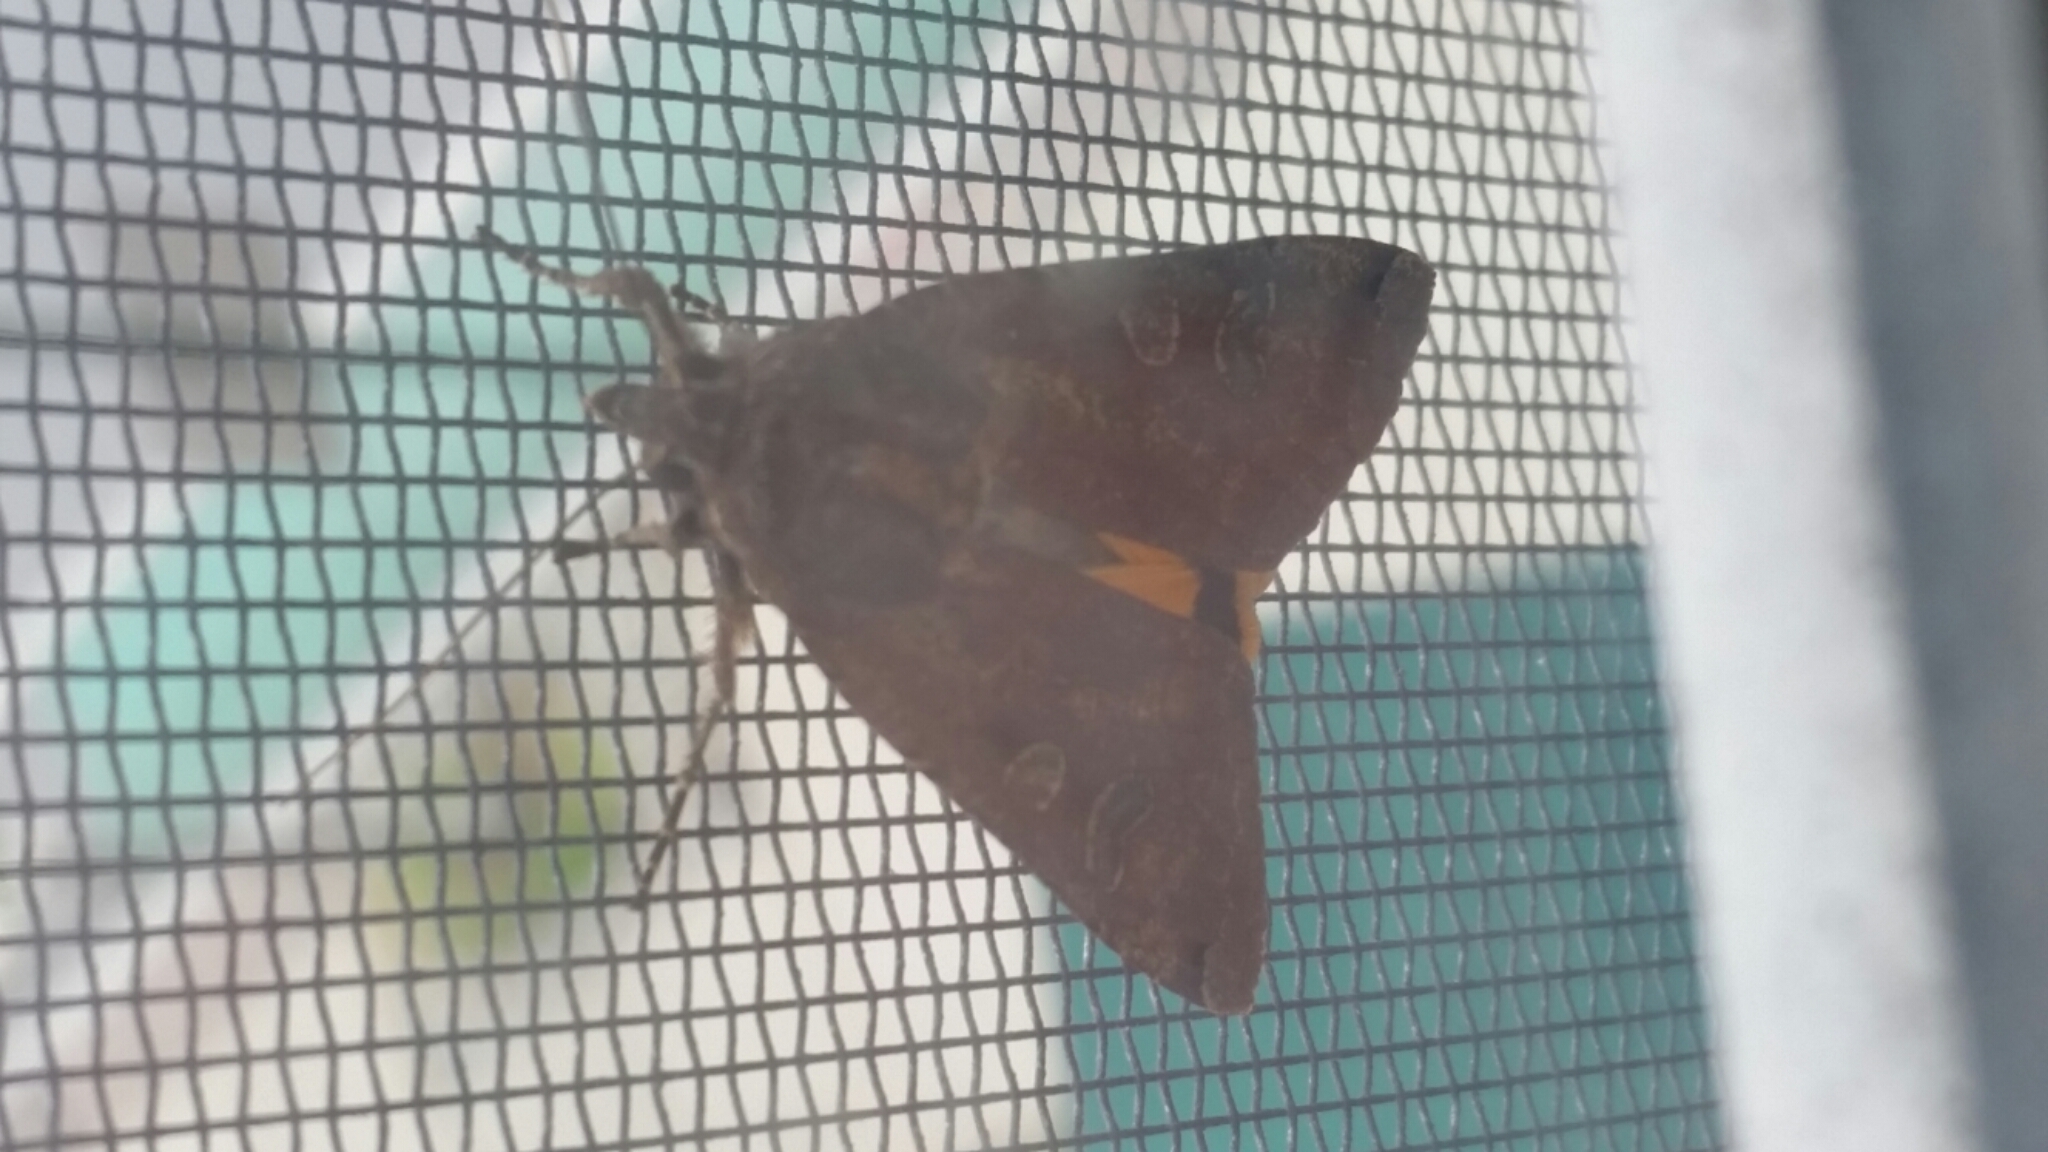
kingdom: Animalia
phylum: Arthropoda
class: Insecta
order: Lepidoptera
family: Noctuidae
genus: Noctua
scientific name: Noctua pronuba
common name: Large yellow underwing
